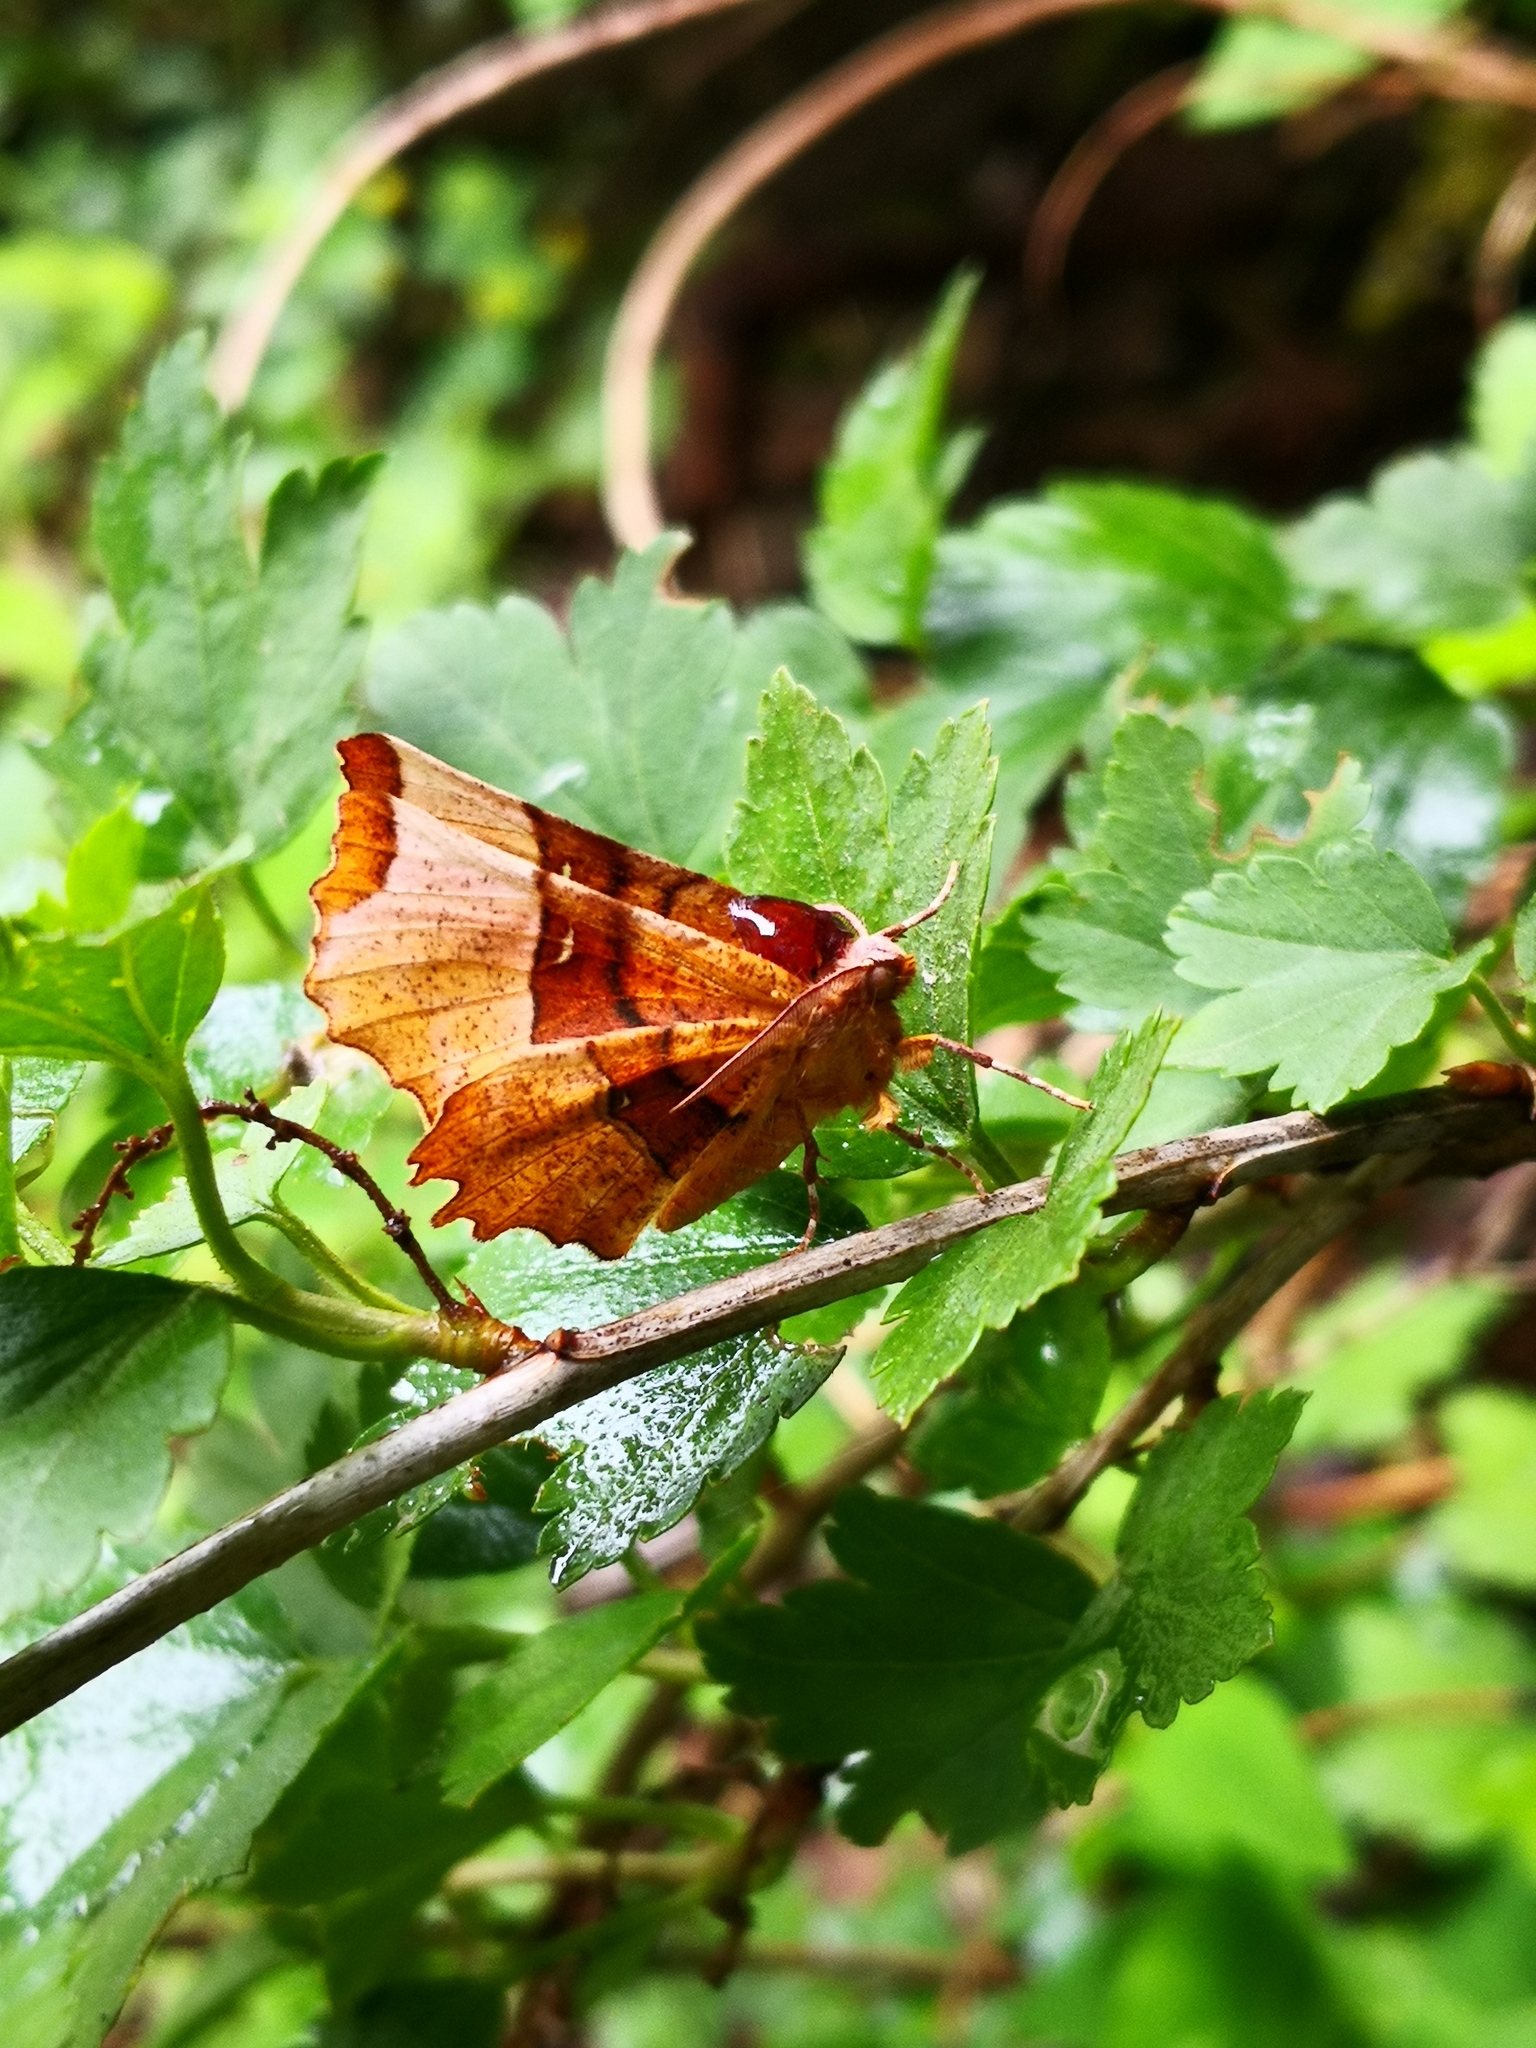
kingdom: Animalia
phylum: Arthropoda
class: Insecta
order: Lepidoptera
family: Geometridae
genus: Selenia
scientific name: Selenia lunularia
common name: Lunar thorn
